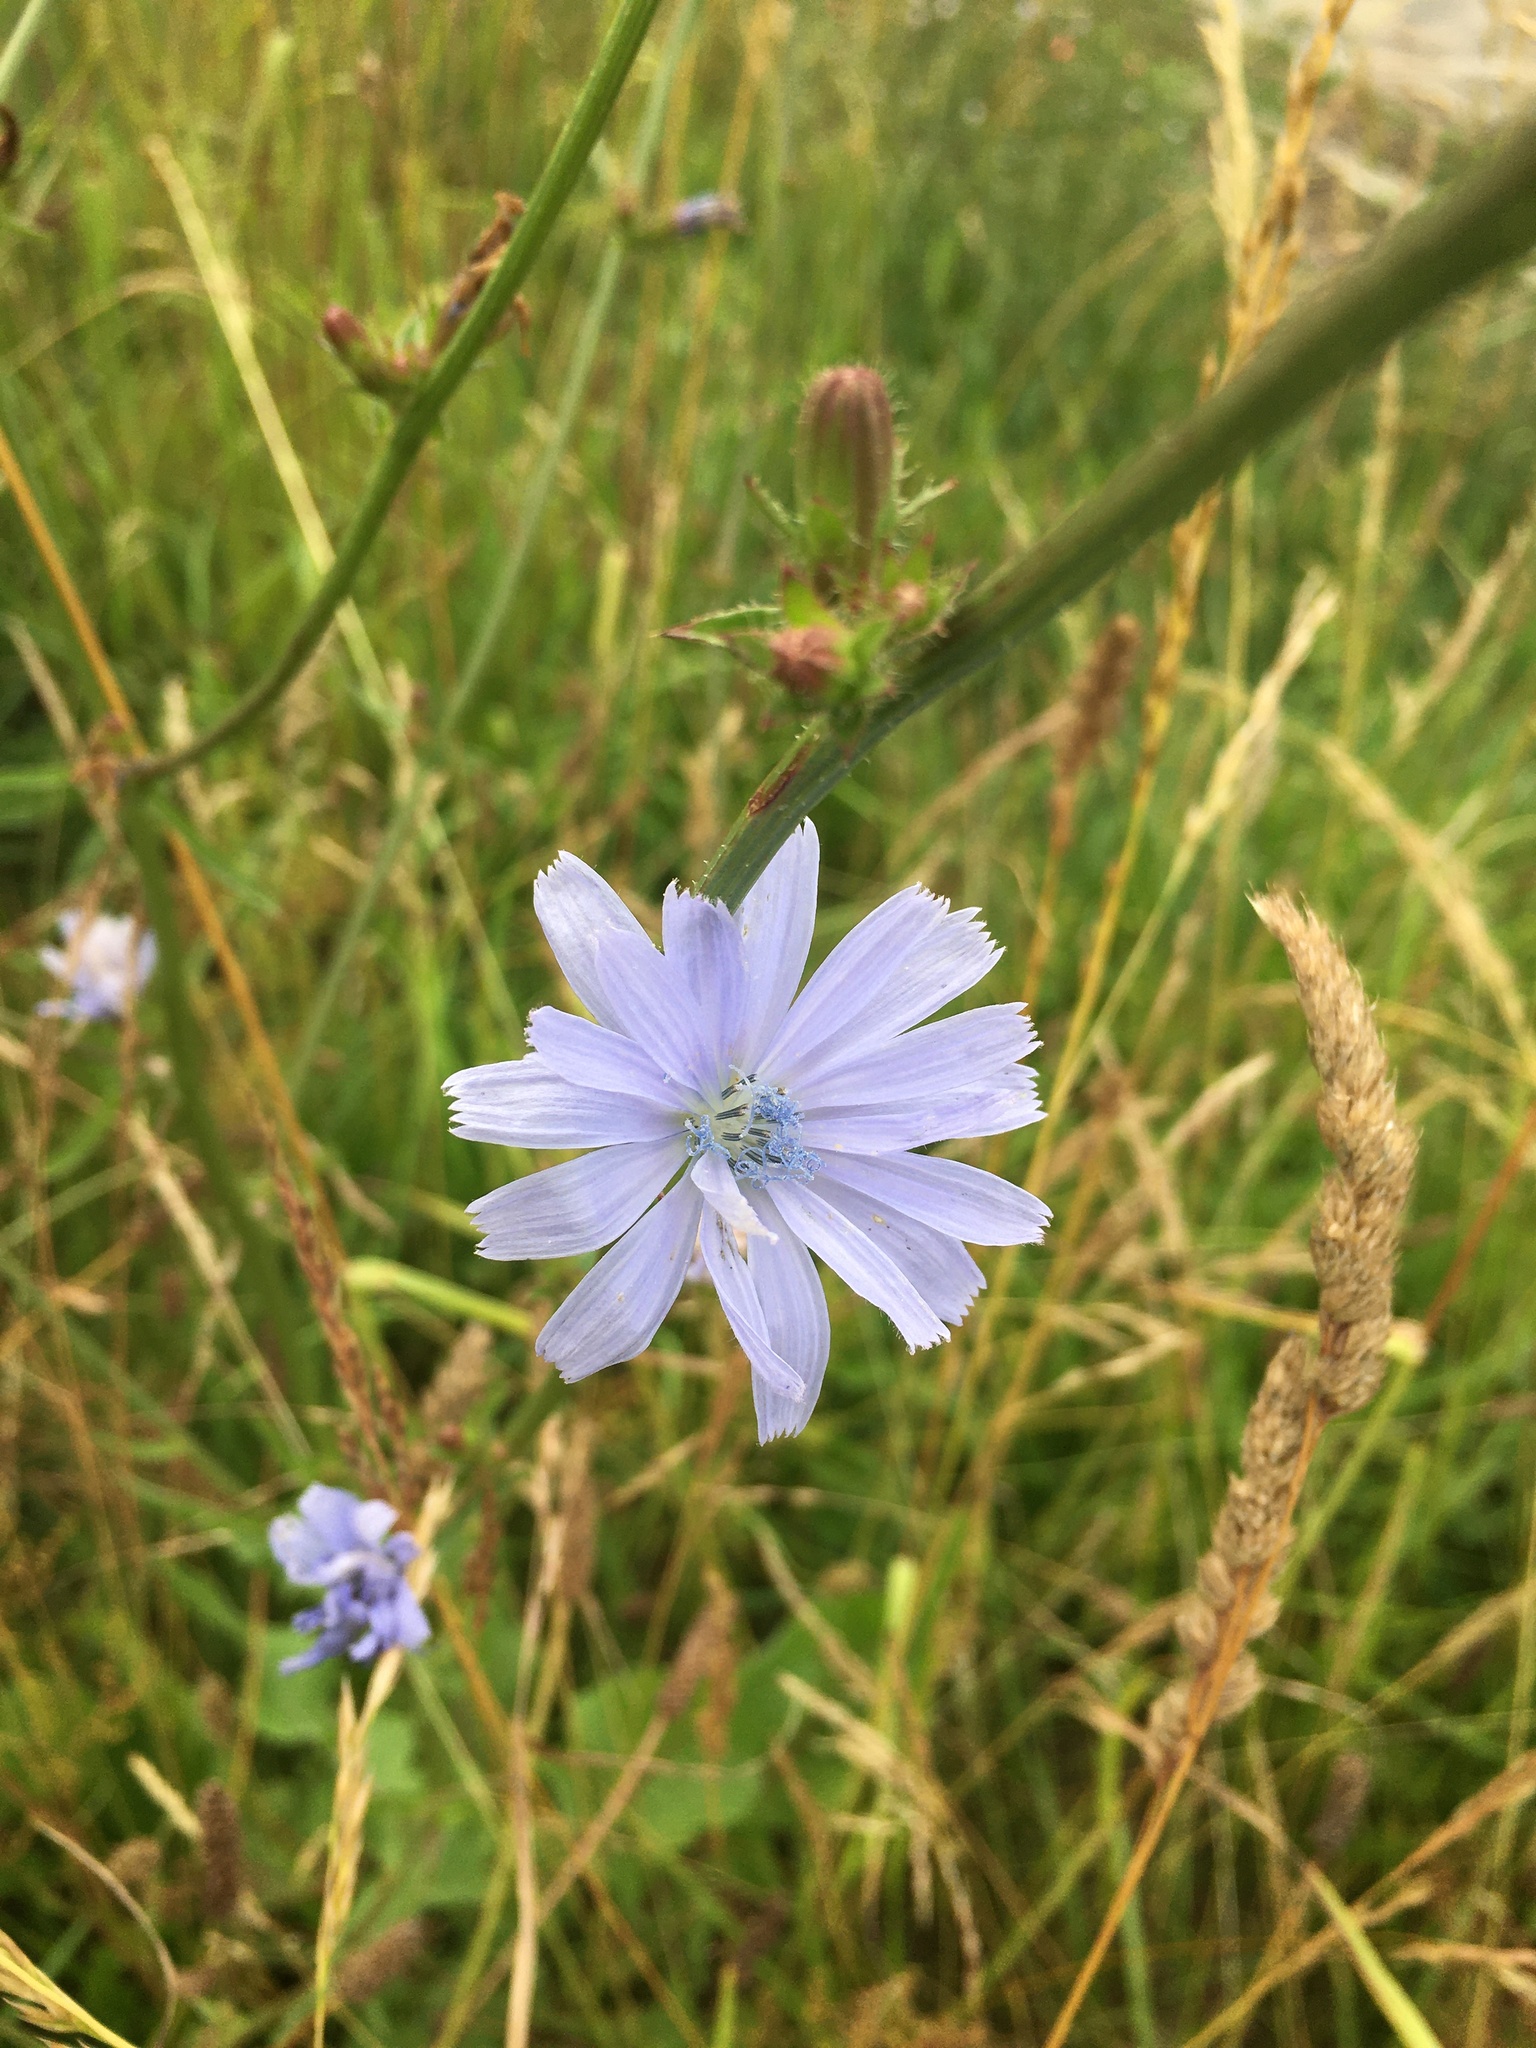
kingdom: Plantae
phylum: Tracheophyta
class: Magnoliopsida
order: Asterales
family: Asteraceae
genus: Cichorium
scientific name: Cichorium intybus
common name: Chicory
